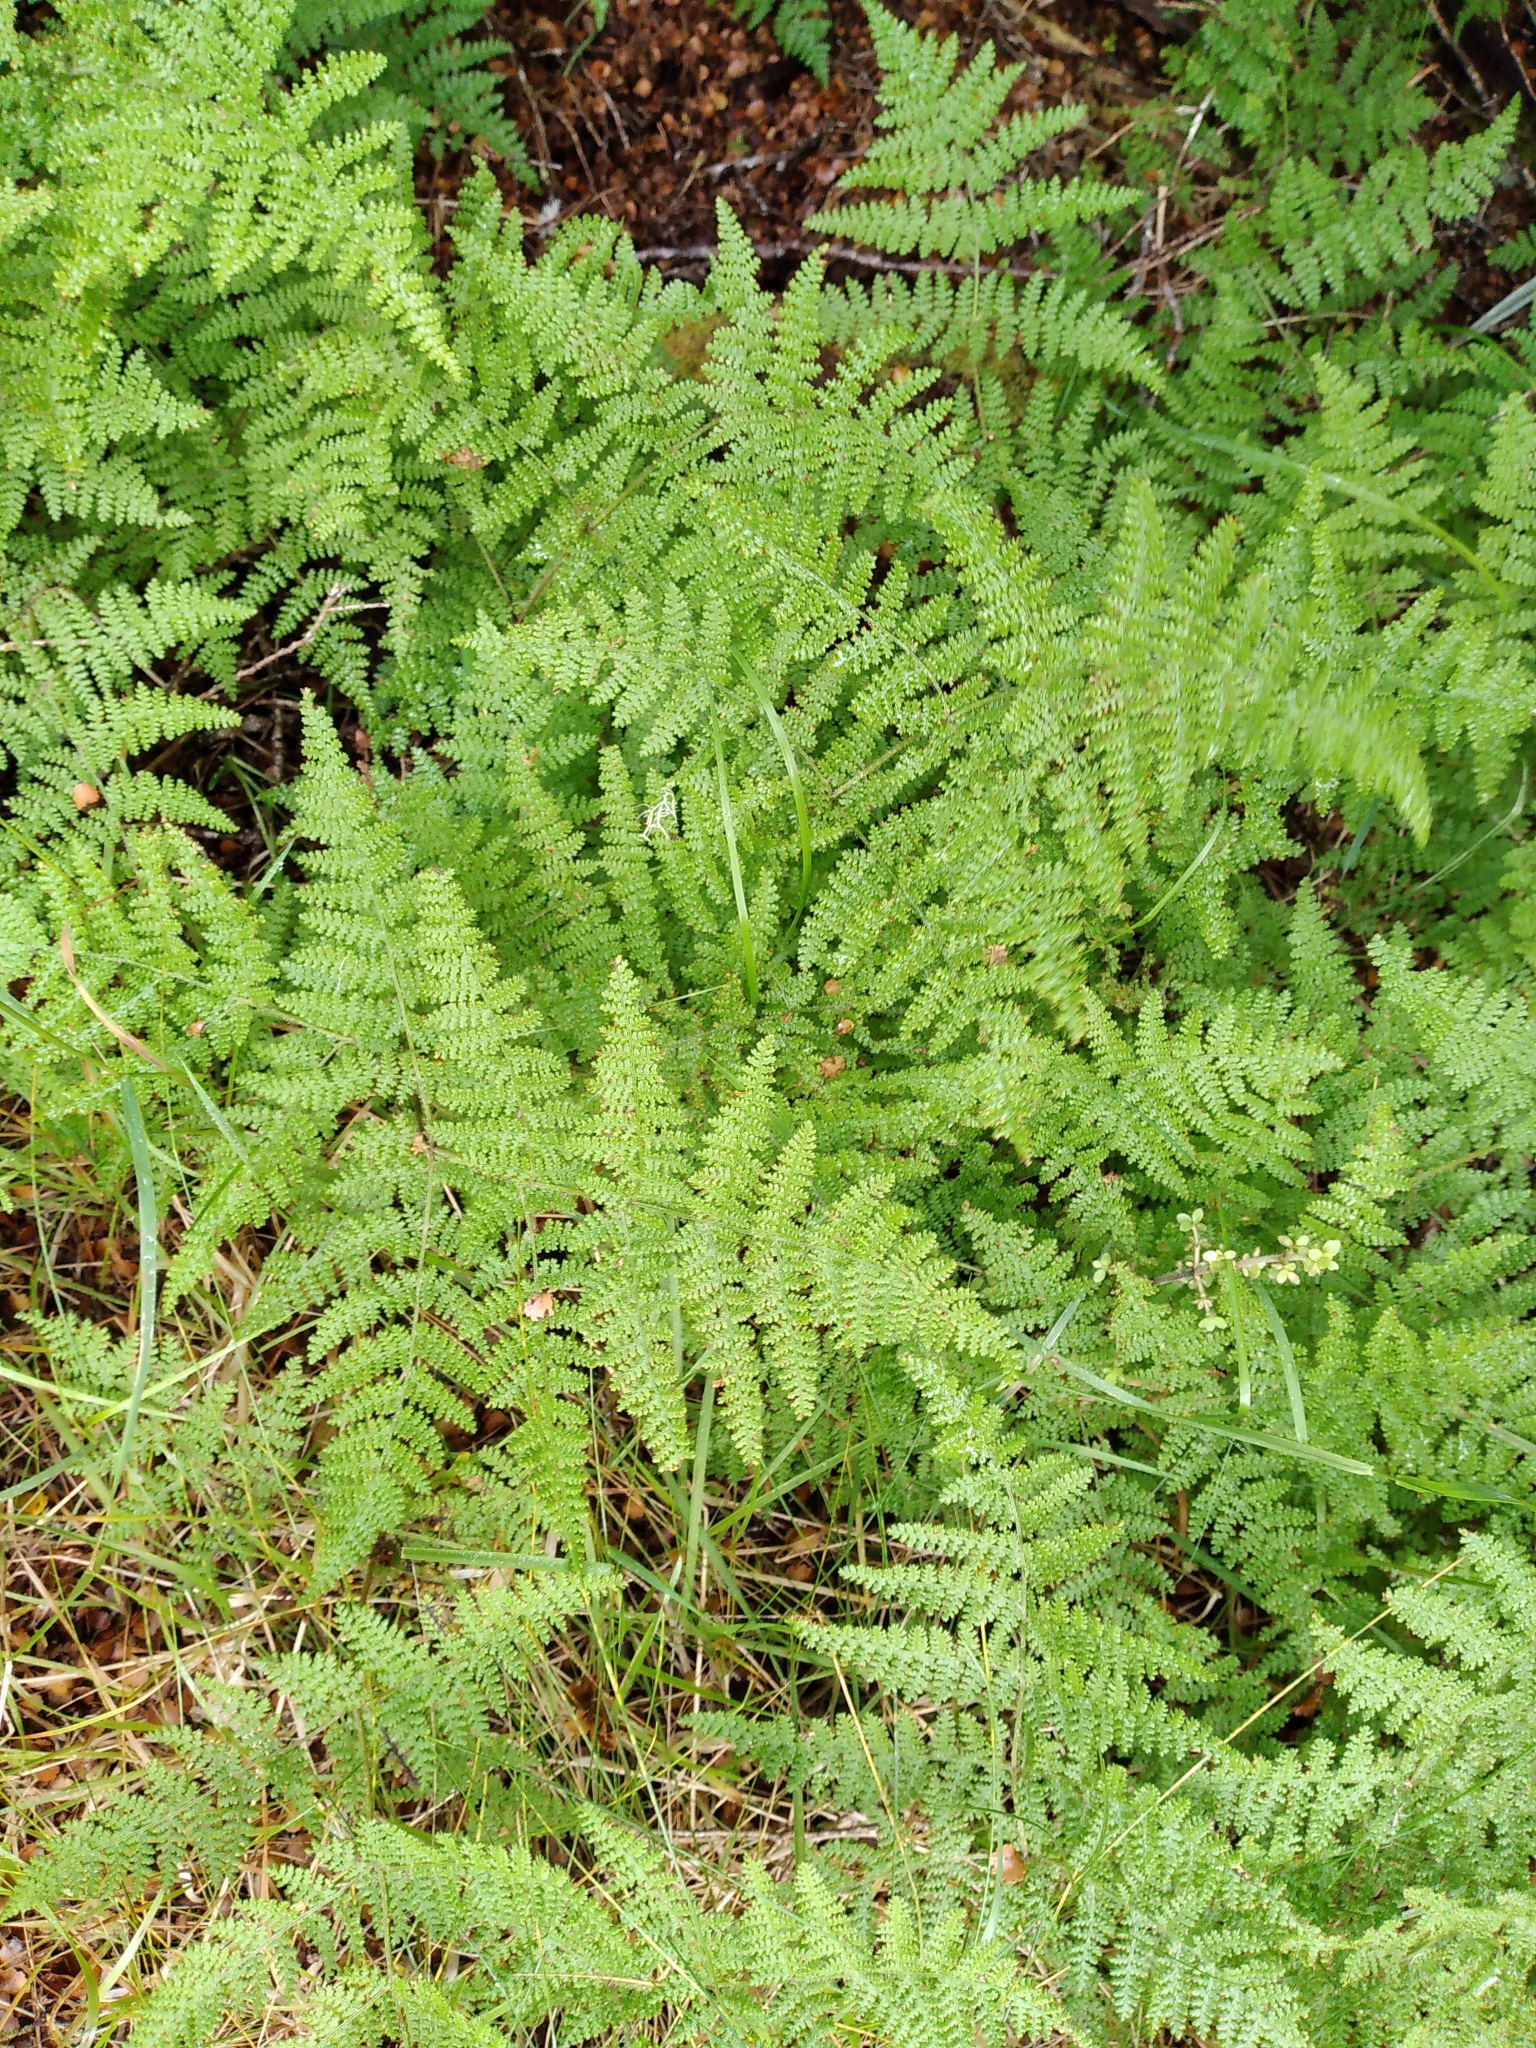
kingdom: Plantae
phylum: Tracheophyta
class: Polypodiopsida
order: Polypodiales
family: Dennstaedtiaceae
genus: Hypolepis
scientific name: Hypolepis millefolium
